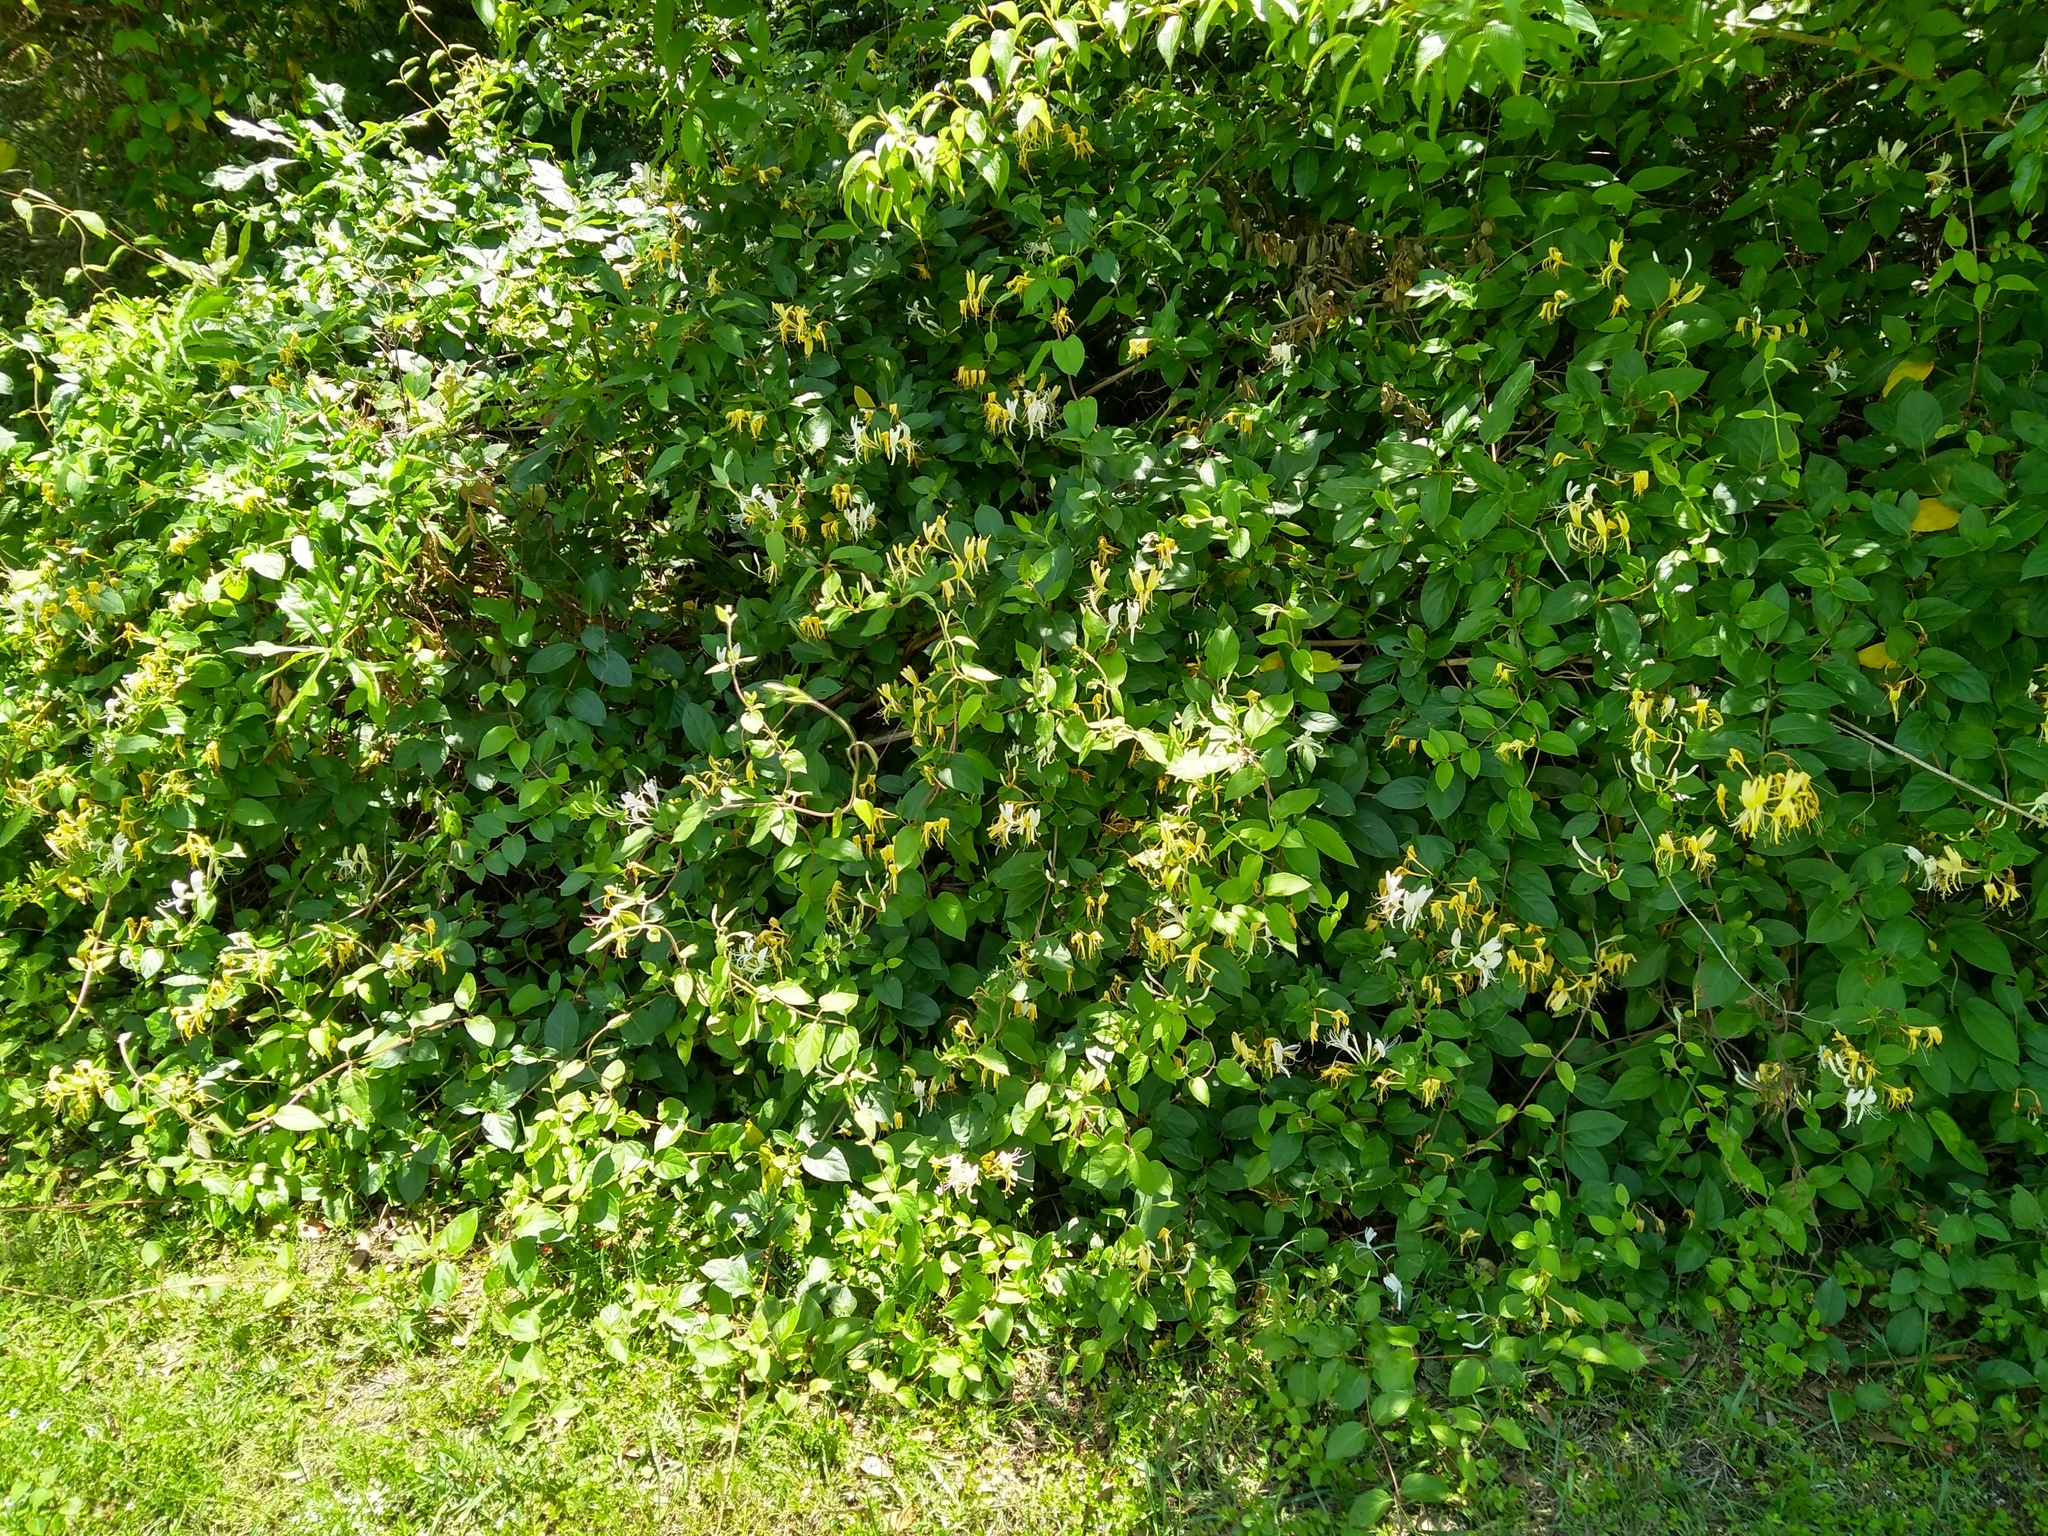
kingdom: Plantae
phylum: Tracheophyta
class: Magnoliopsida
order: Dipsacales
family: Caprifoliaceae
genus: Lonicera
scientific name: Lonicera japonica
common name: Japanese honeysuckle
